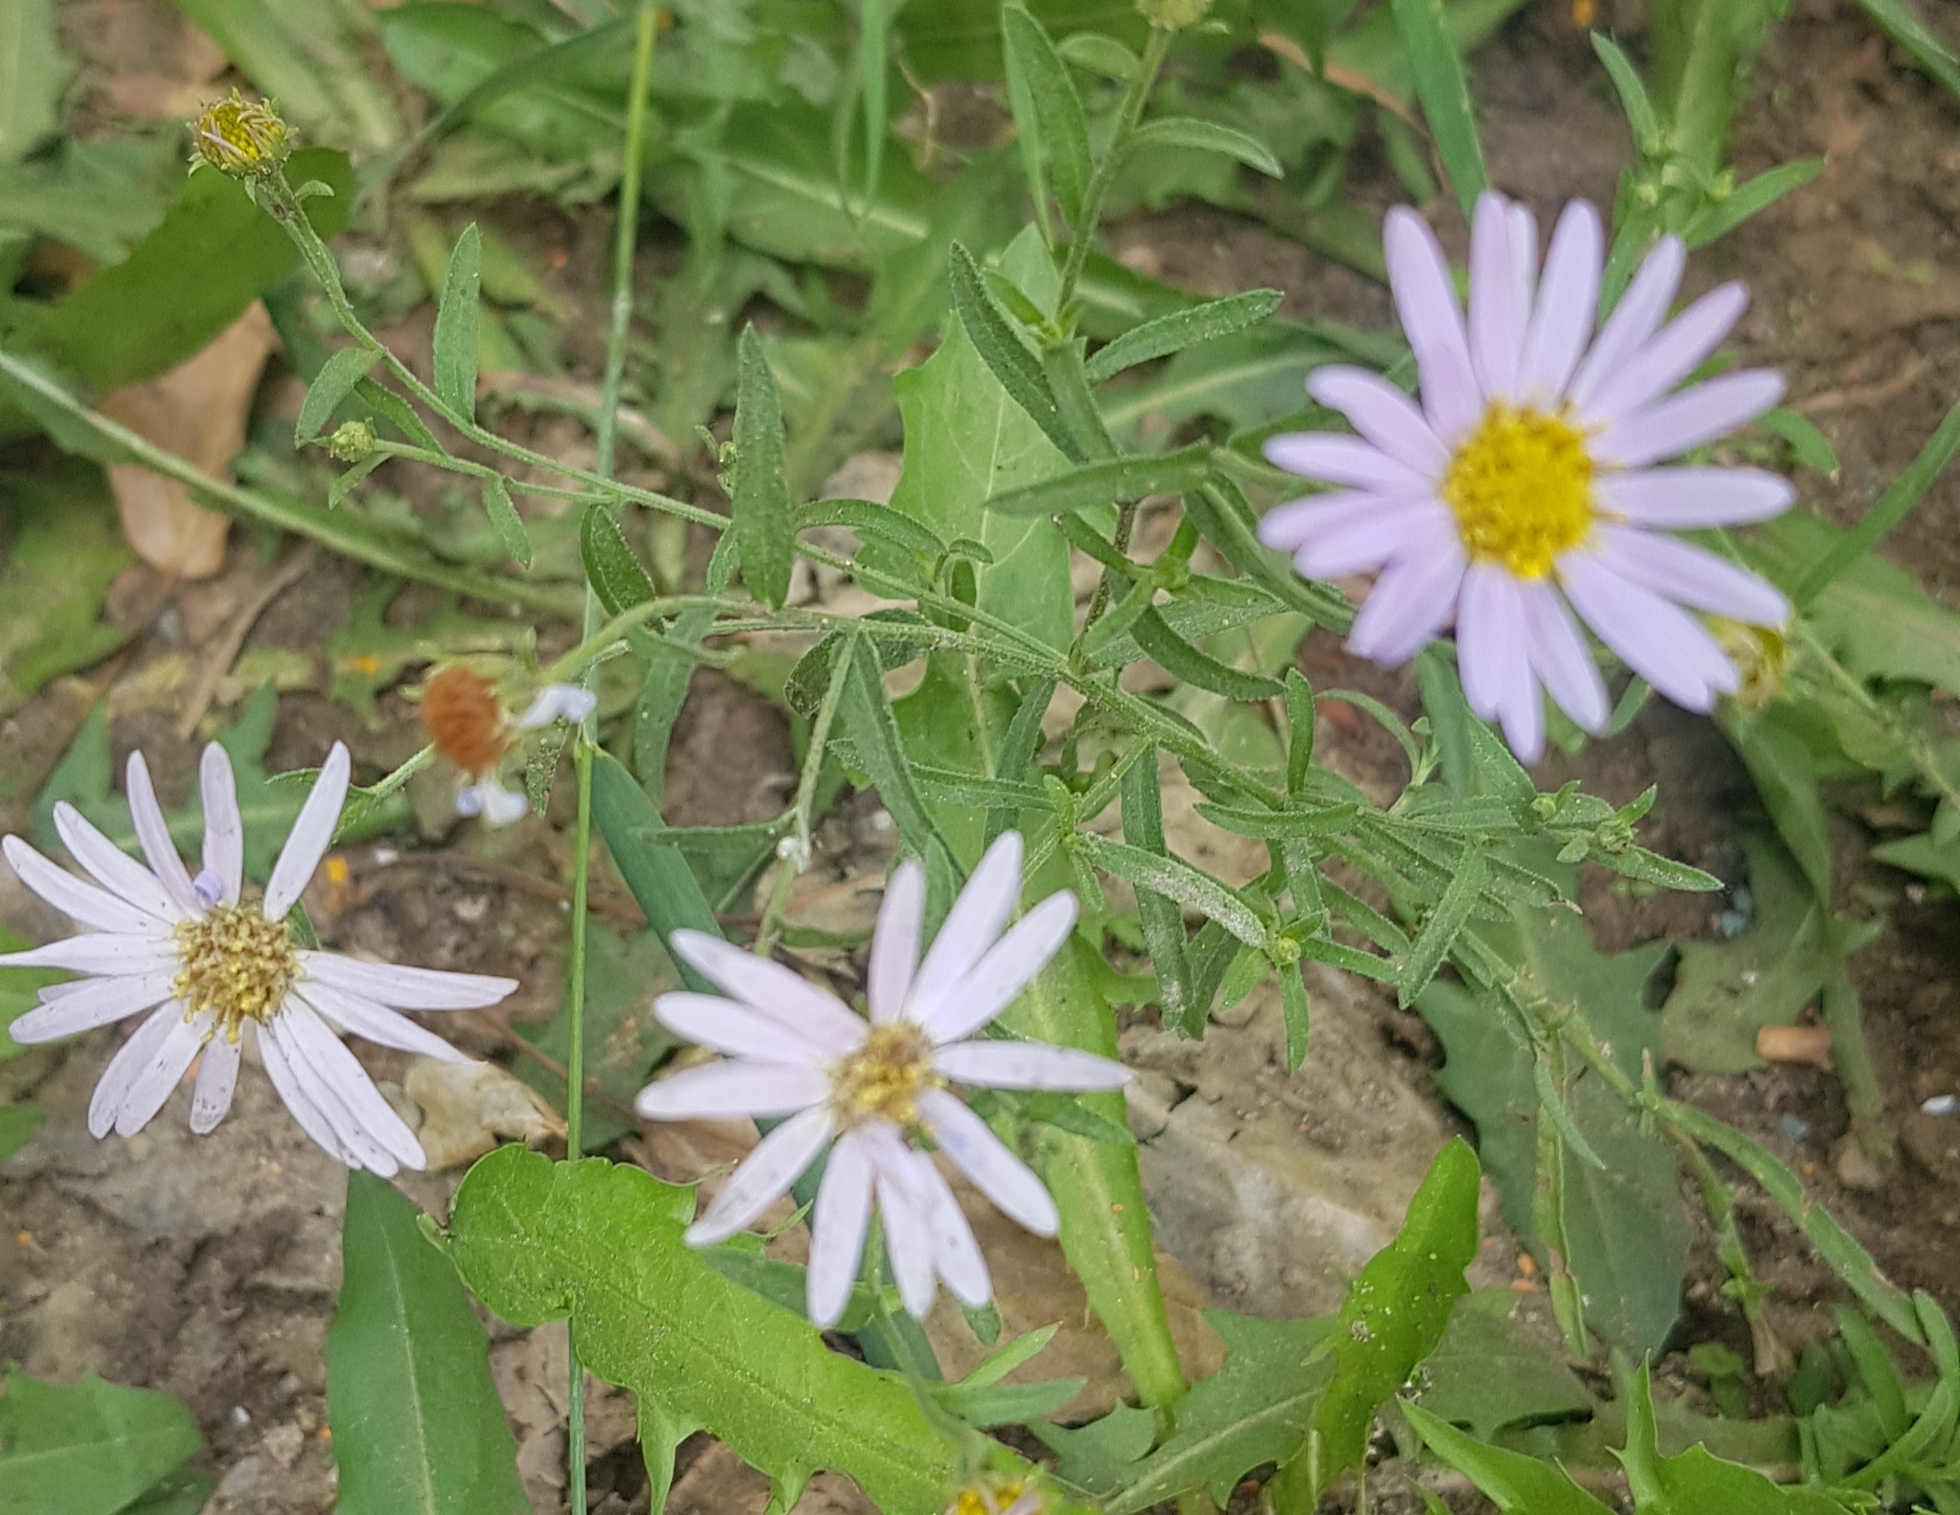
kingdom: Plantae
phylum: Tracheophyta
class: Magnoliopsida
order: Asterales
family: Asteraceae
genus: Heteropappus
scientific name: Heteropappus altaicus
